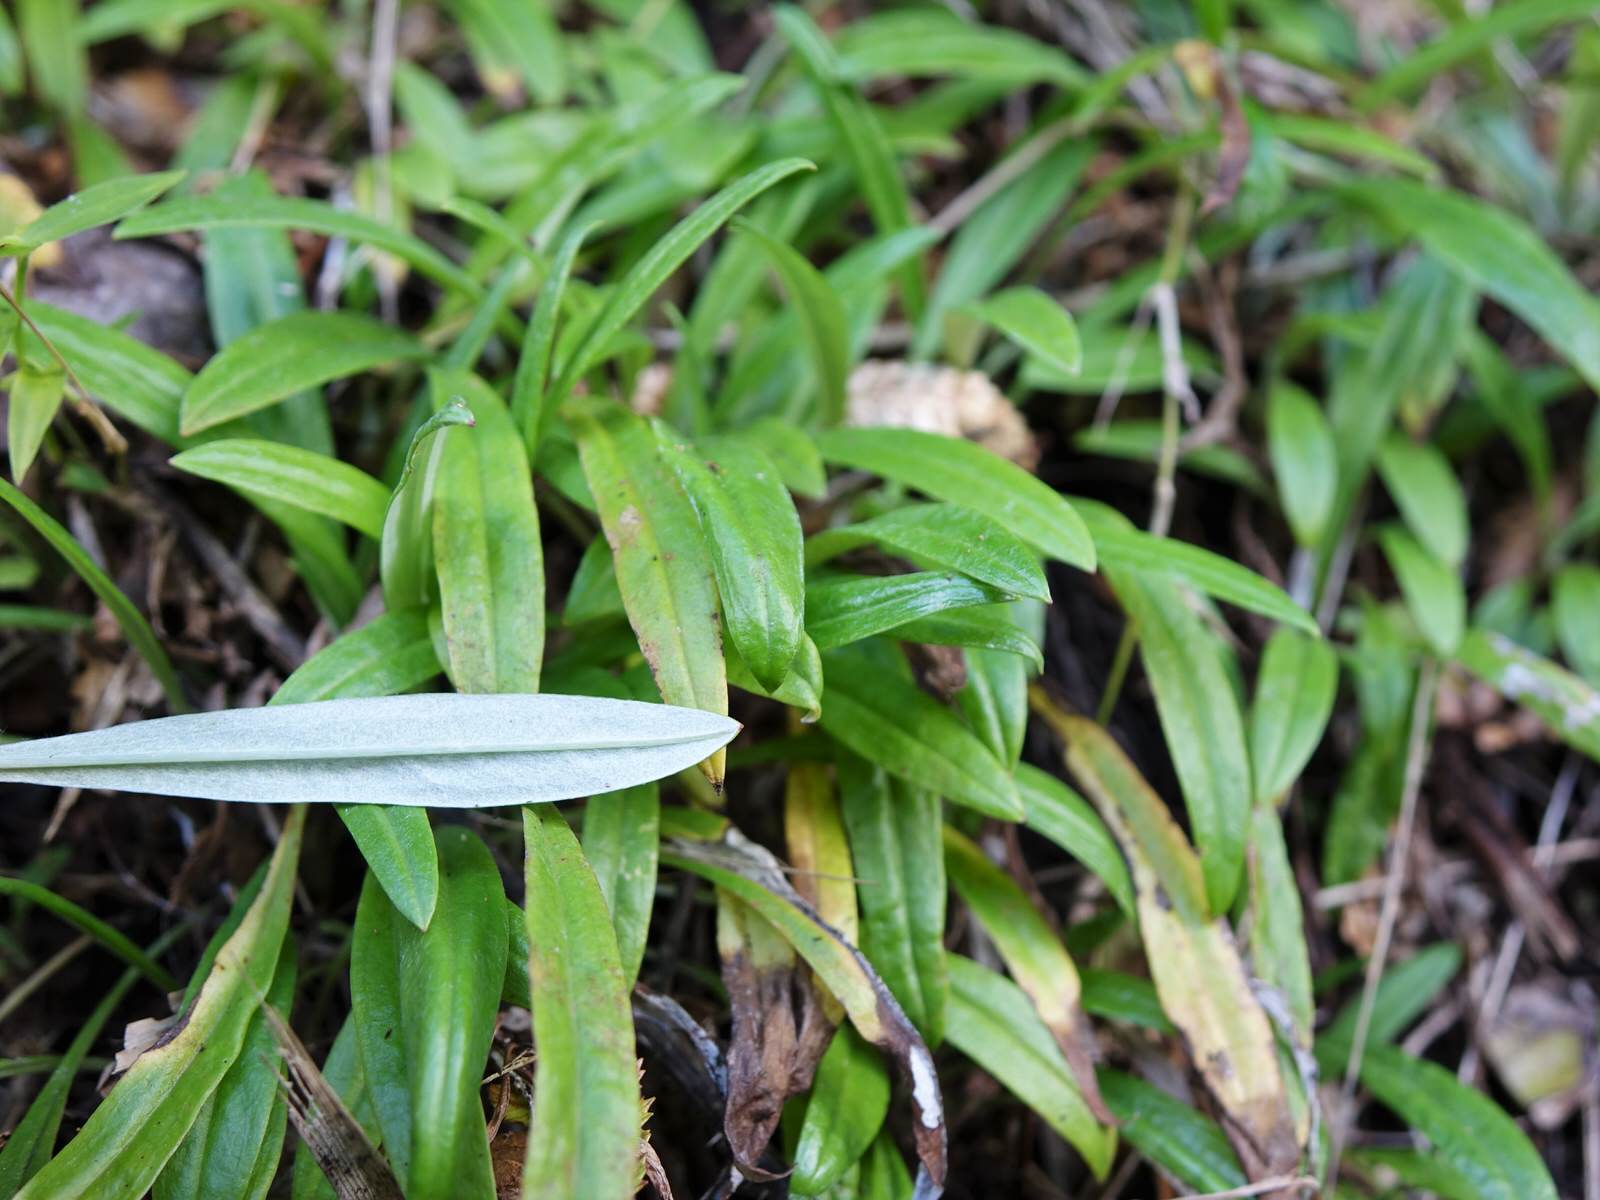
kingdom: Plantae
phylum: Tracheophyta
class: Magnoliopsida
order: Asterales
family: Asteraceae
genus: Euchiton
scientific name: Euchiton japonicus
